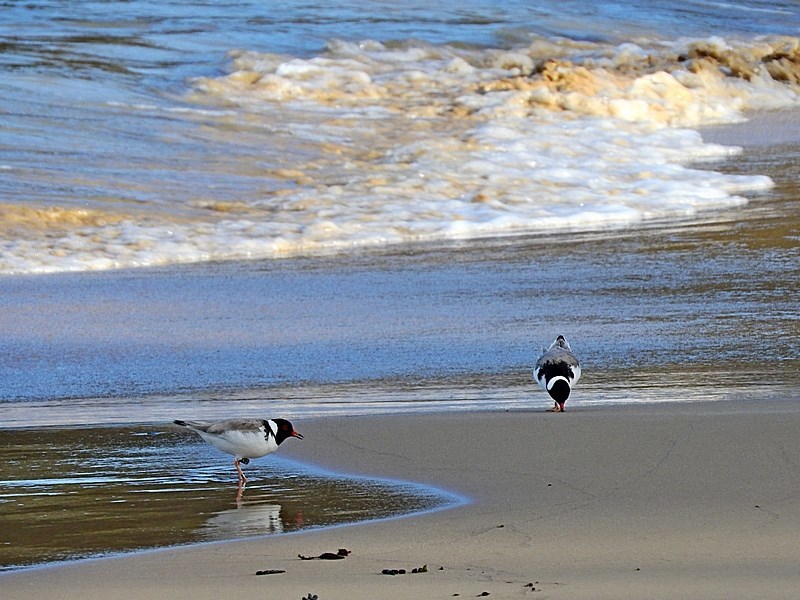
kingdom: Animalia
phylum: Chordata
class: Aves
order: Charadriiformes
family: Charadriidae
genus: Thinornis
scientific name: Thinornis cucullatus
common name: Hooded dotterel
